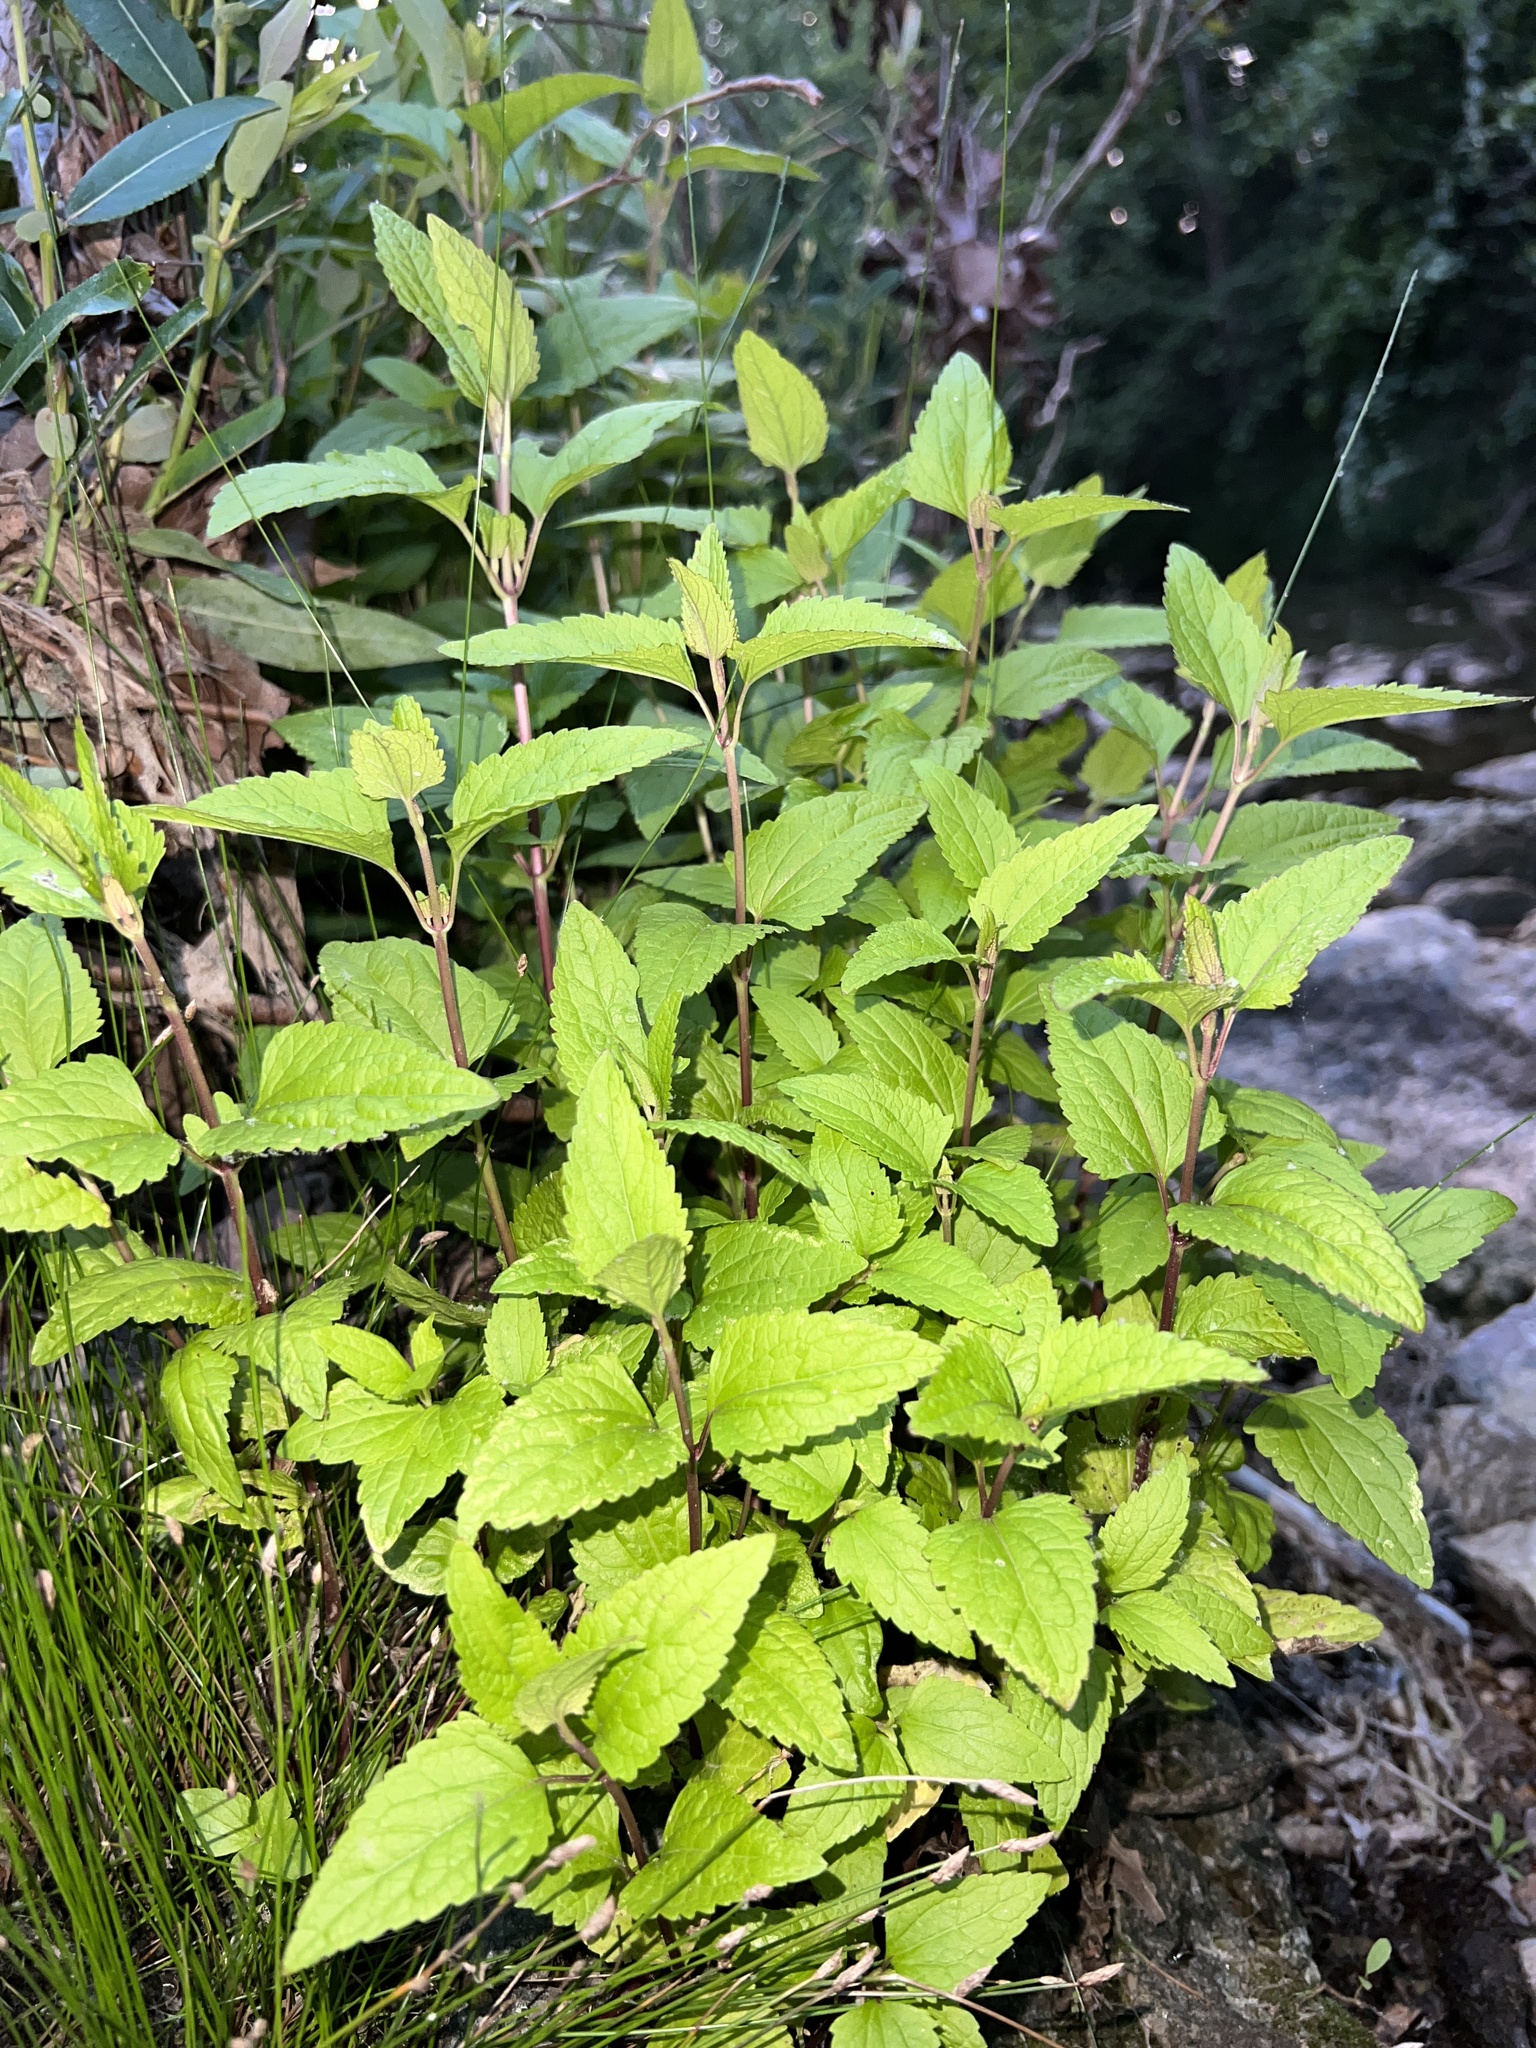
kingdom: Plantae
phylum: Tracheophyta
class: Magnoliopsida
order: Asterales
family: Asteraceae
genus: Conoclinium
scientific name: Conoclinium coelestinum
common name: Blue mistflower
